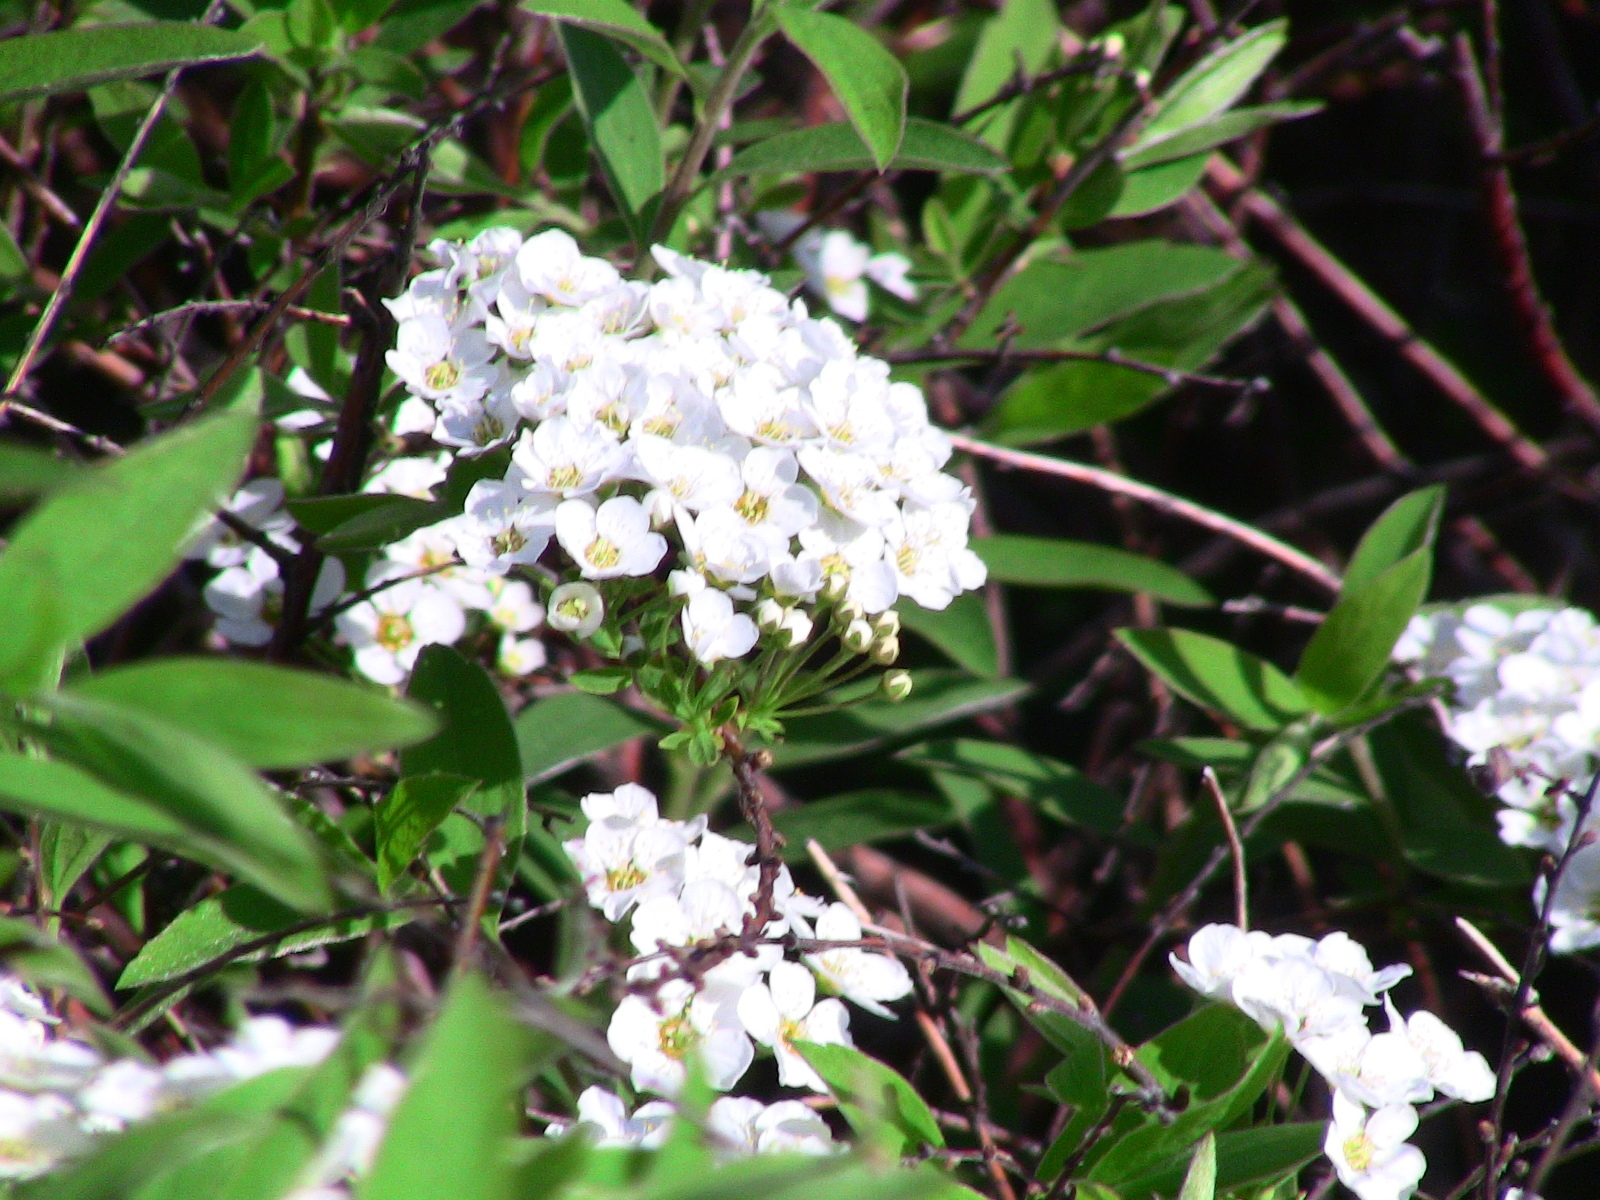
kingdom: Plantae
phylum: Tracheophyta
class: Magnoliopsida
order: Rosales
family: Rosaceae
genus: Spiraea
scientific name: Spiraea cantoniensis
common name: Reeves' meadowsweet
